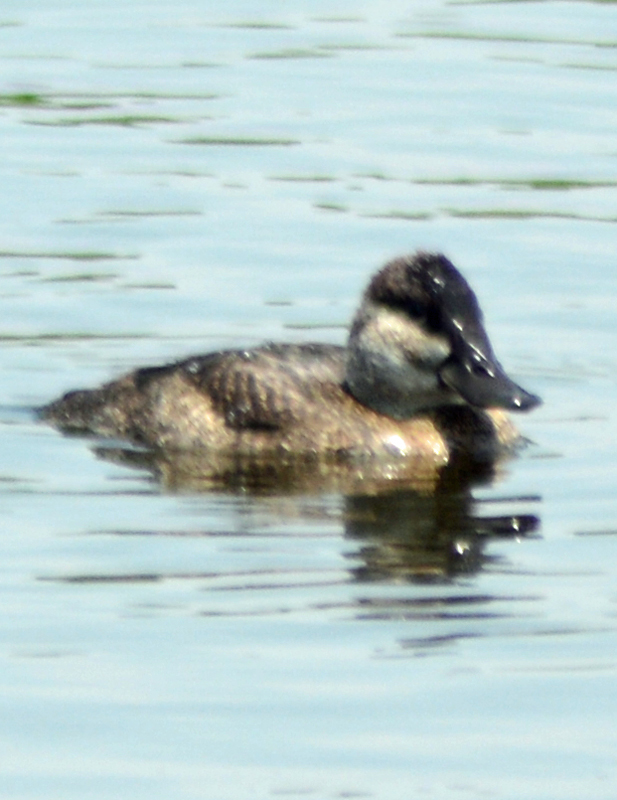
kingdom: Animalia
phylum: Chordata
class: Aves
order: Anseriformes
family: Anatidae
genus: Oxyura
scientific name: Oxyura jamaicensis
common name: Ruddy duck
